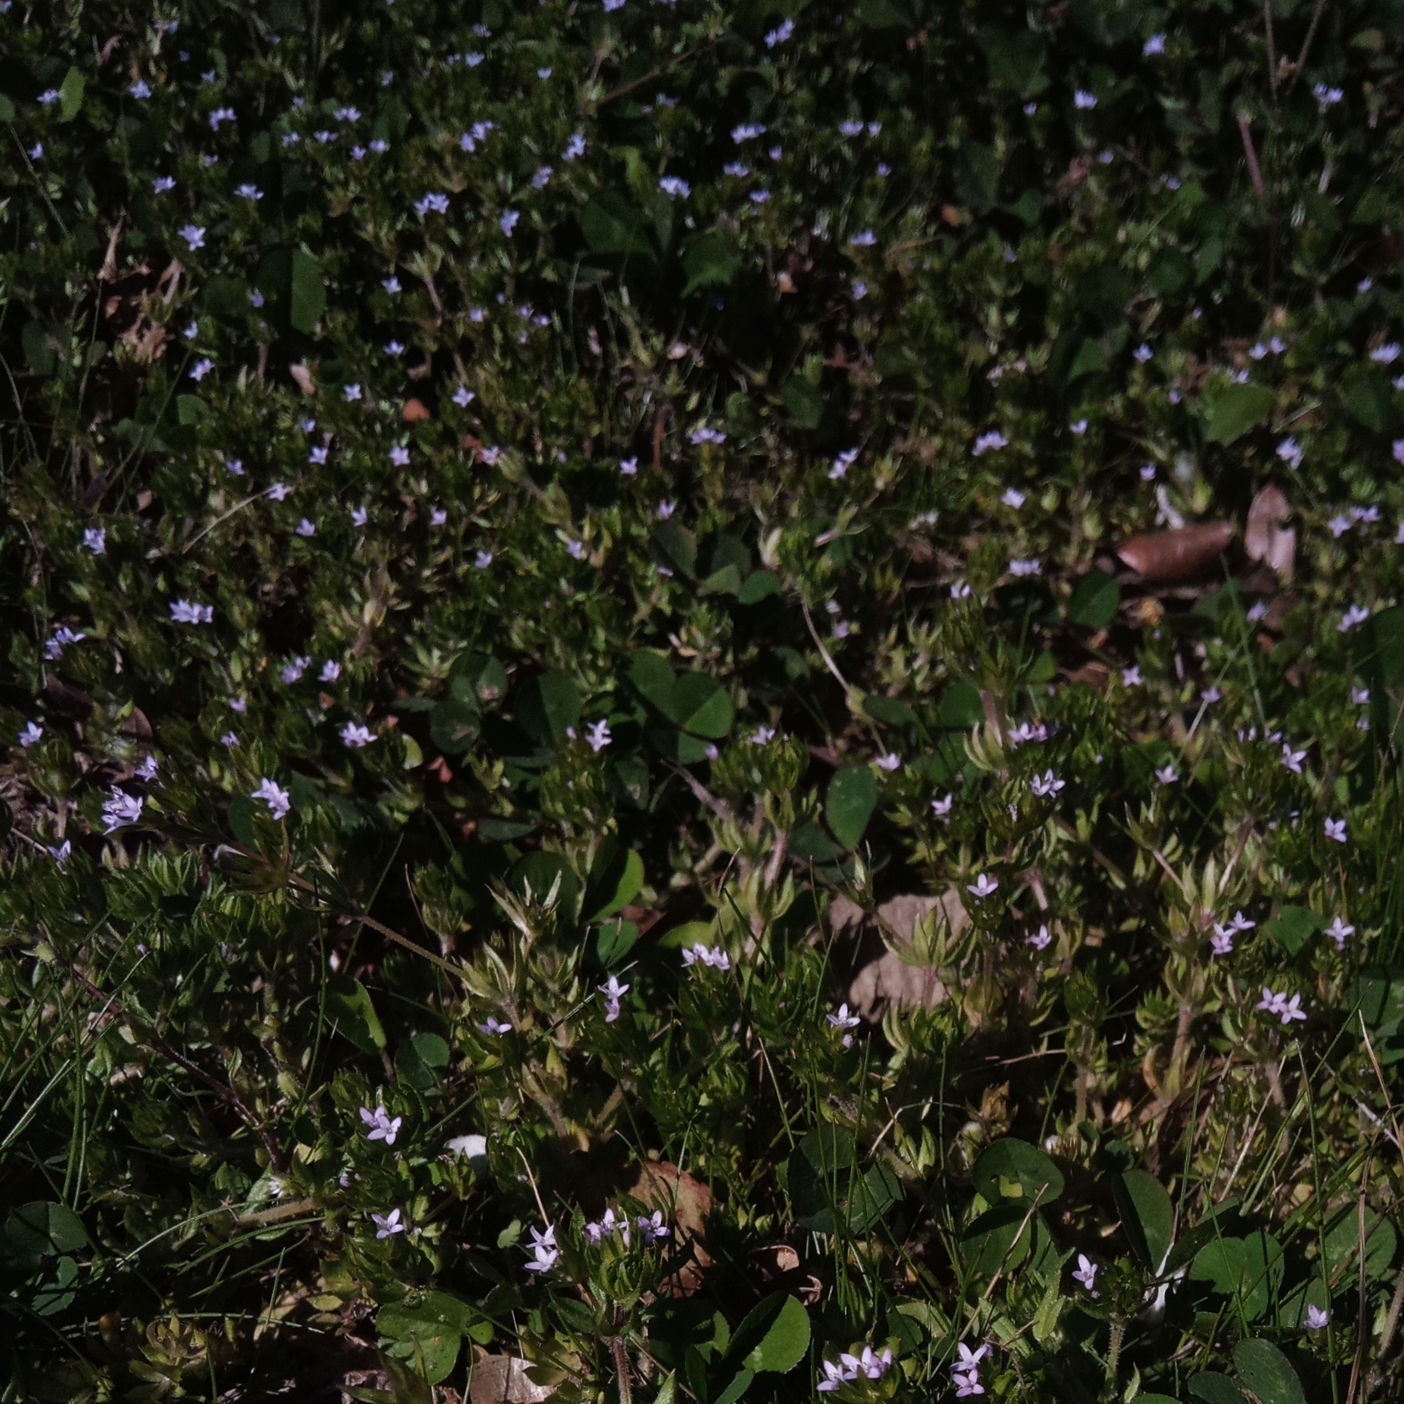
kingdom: Plantae
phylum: Tracheophyta
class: Magnoliopsida
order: Gentianales
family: Rubiaceae
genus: Sherardia
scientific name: Sherardia arvensis
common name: Field madder
